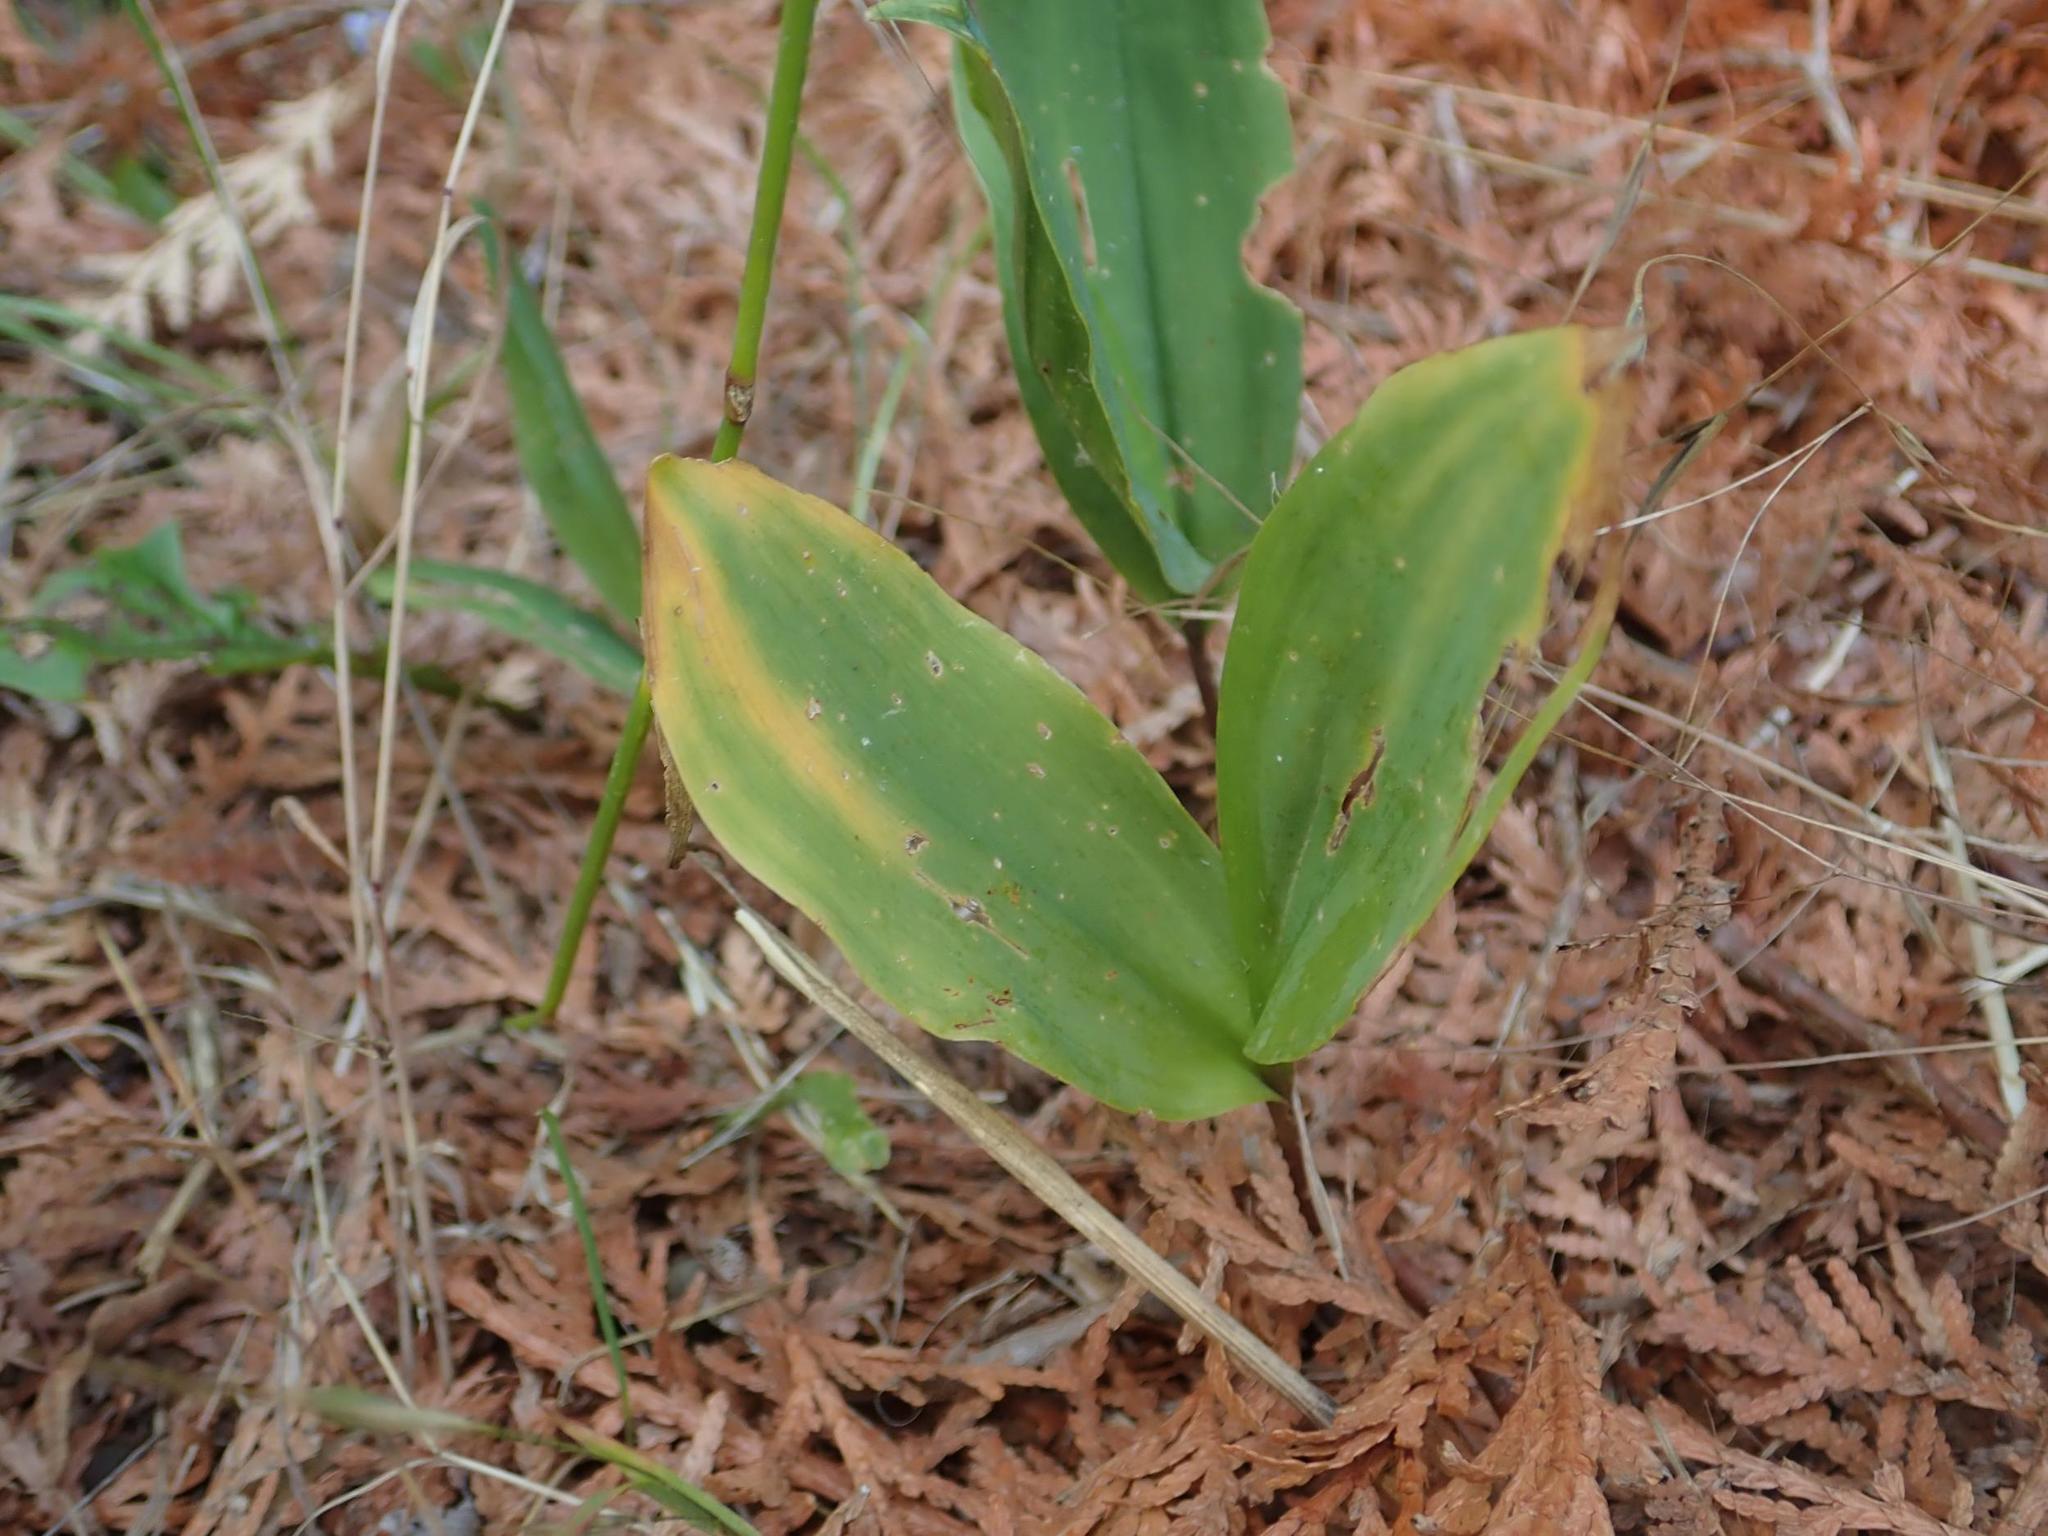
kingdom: Plantae
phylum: Tracheophyta
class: Liliopsida
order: Asparagales
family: Asparagaceae
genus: Convallaria
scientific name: Convallaria majalis
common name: Lily-of-the-valley
